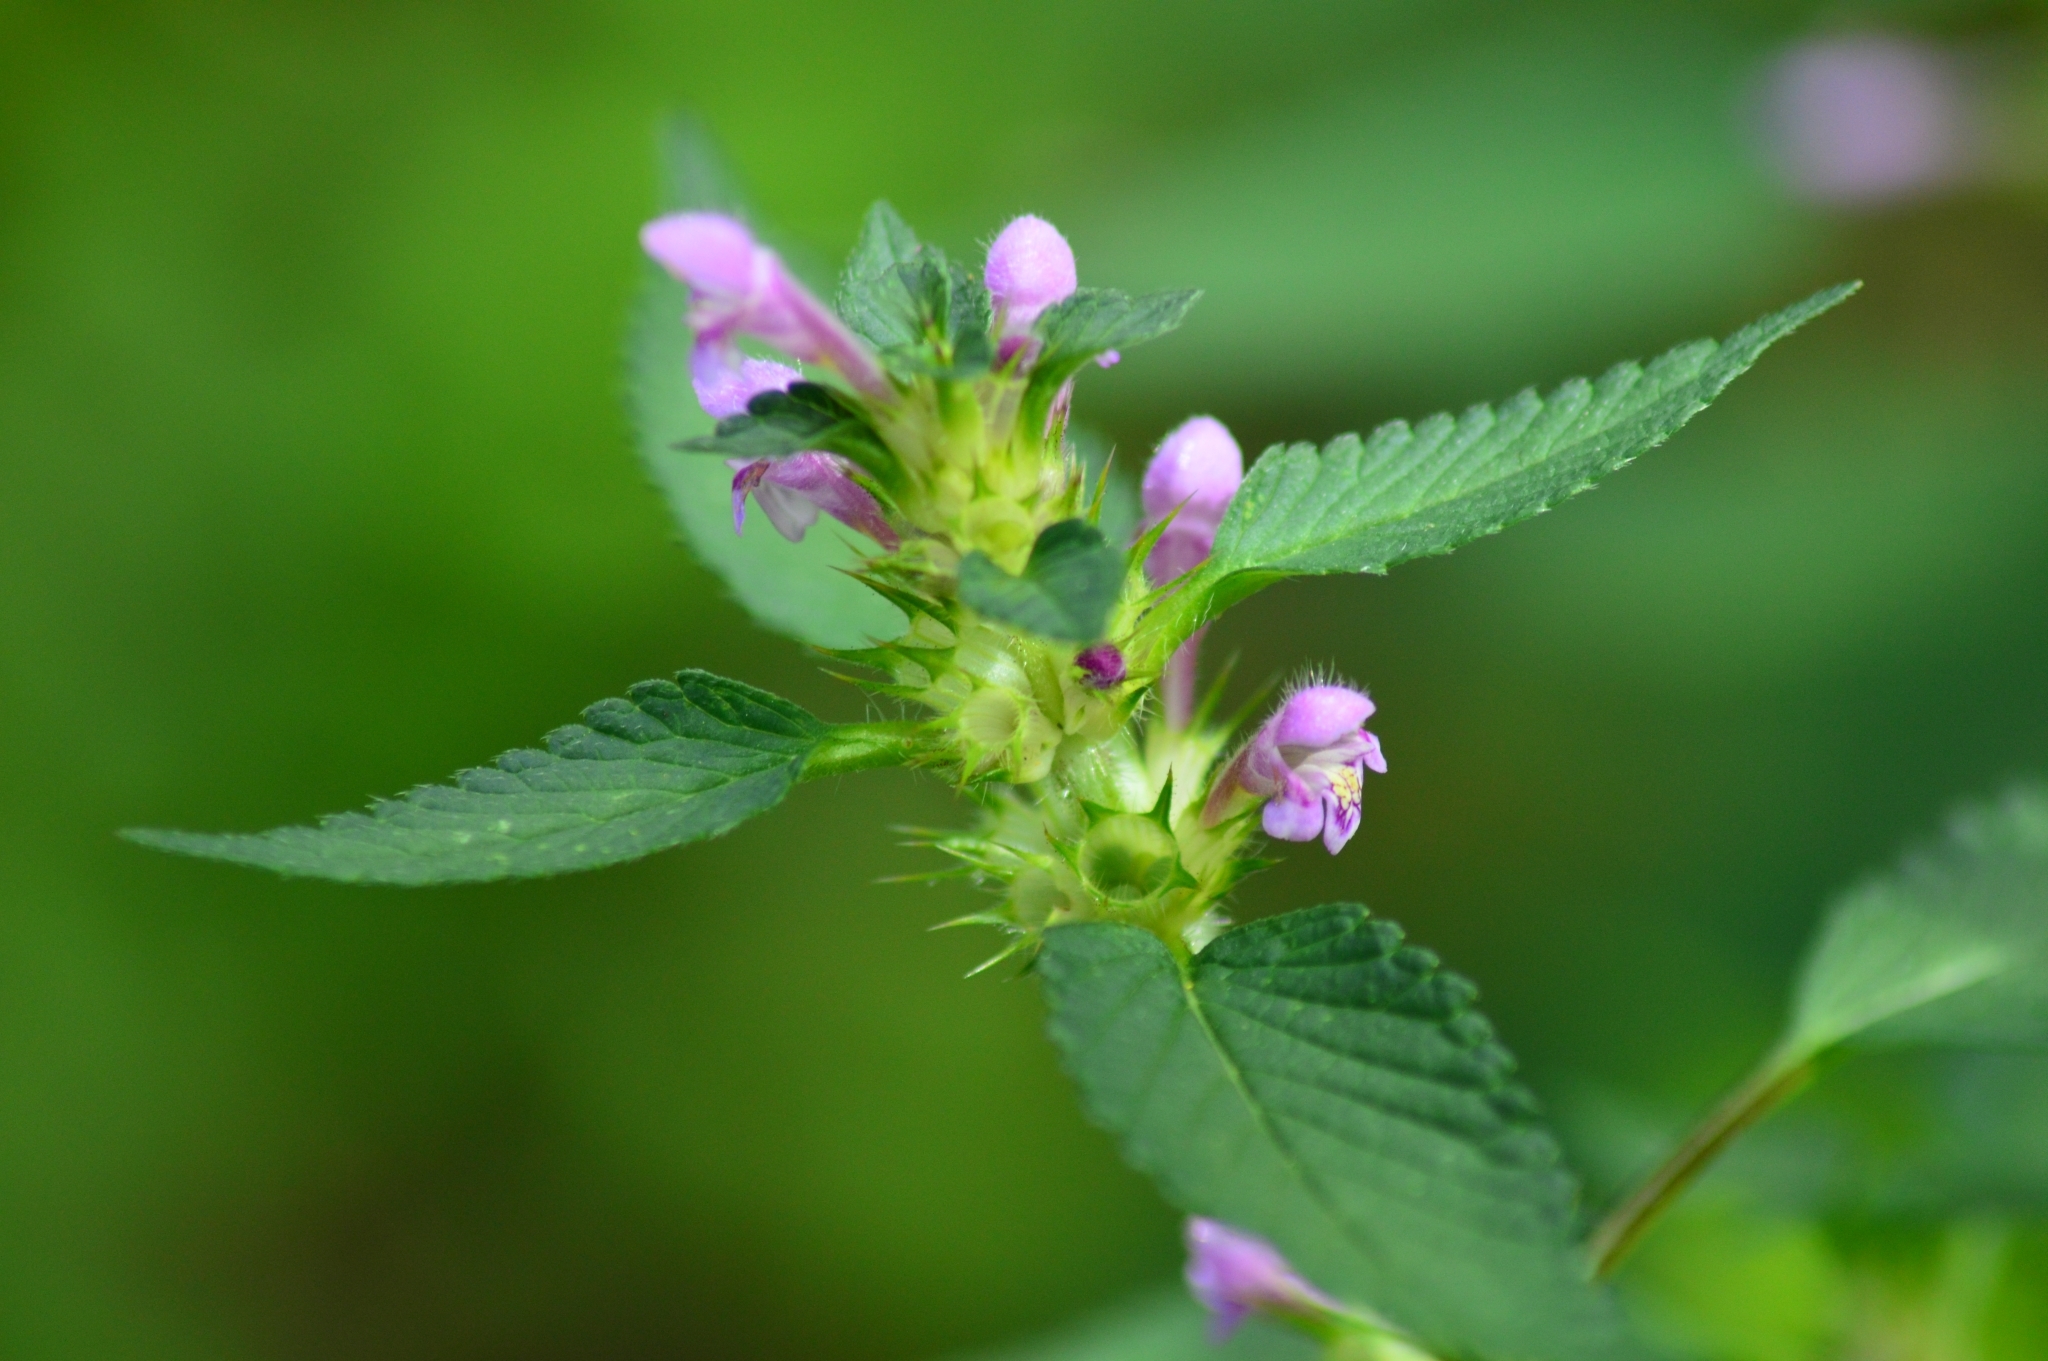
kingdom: Plantae
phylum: Tracheophyta
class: Magnoliopsida
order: Lamiales
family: Lamiaceae
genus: Galeopsis
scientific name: Galeopsis tetrahit
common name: Common hemp-nettle
